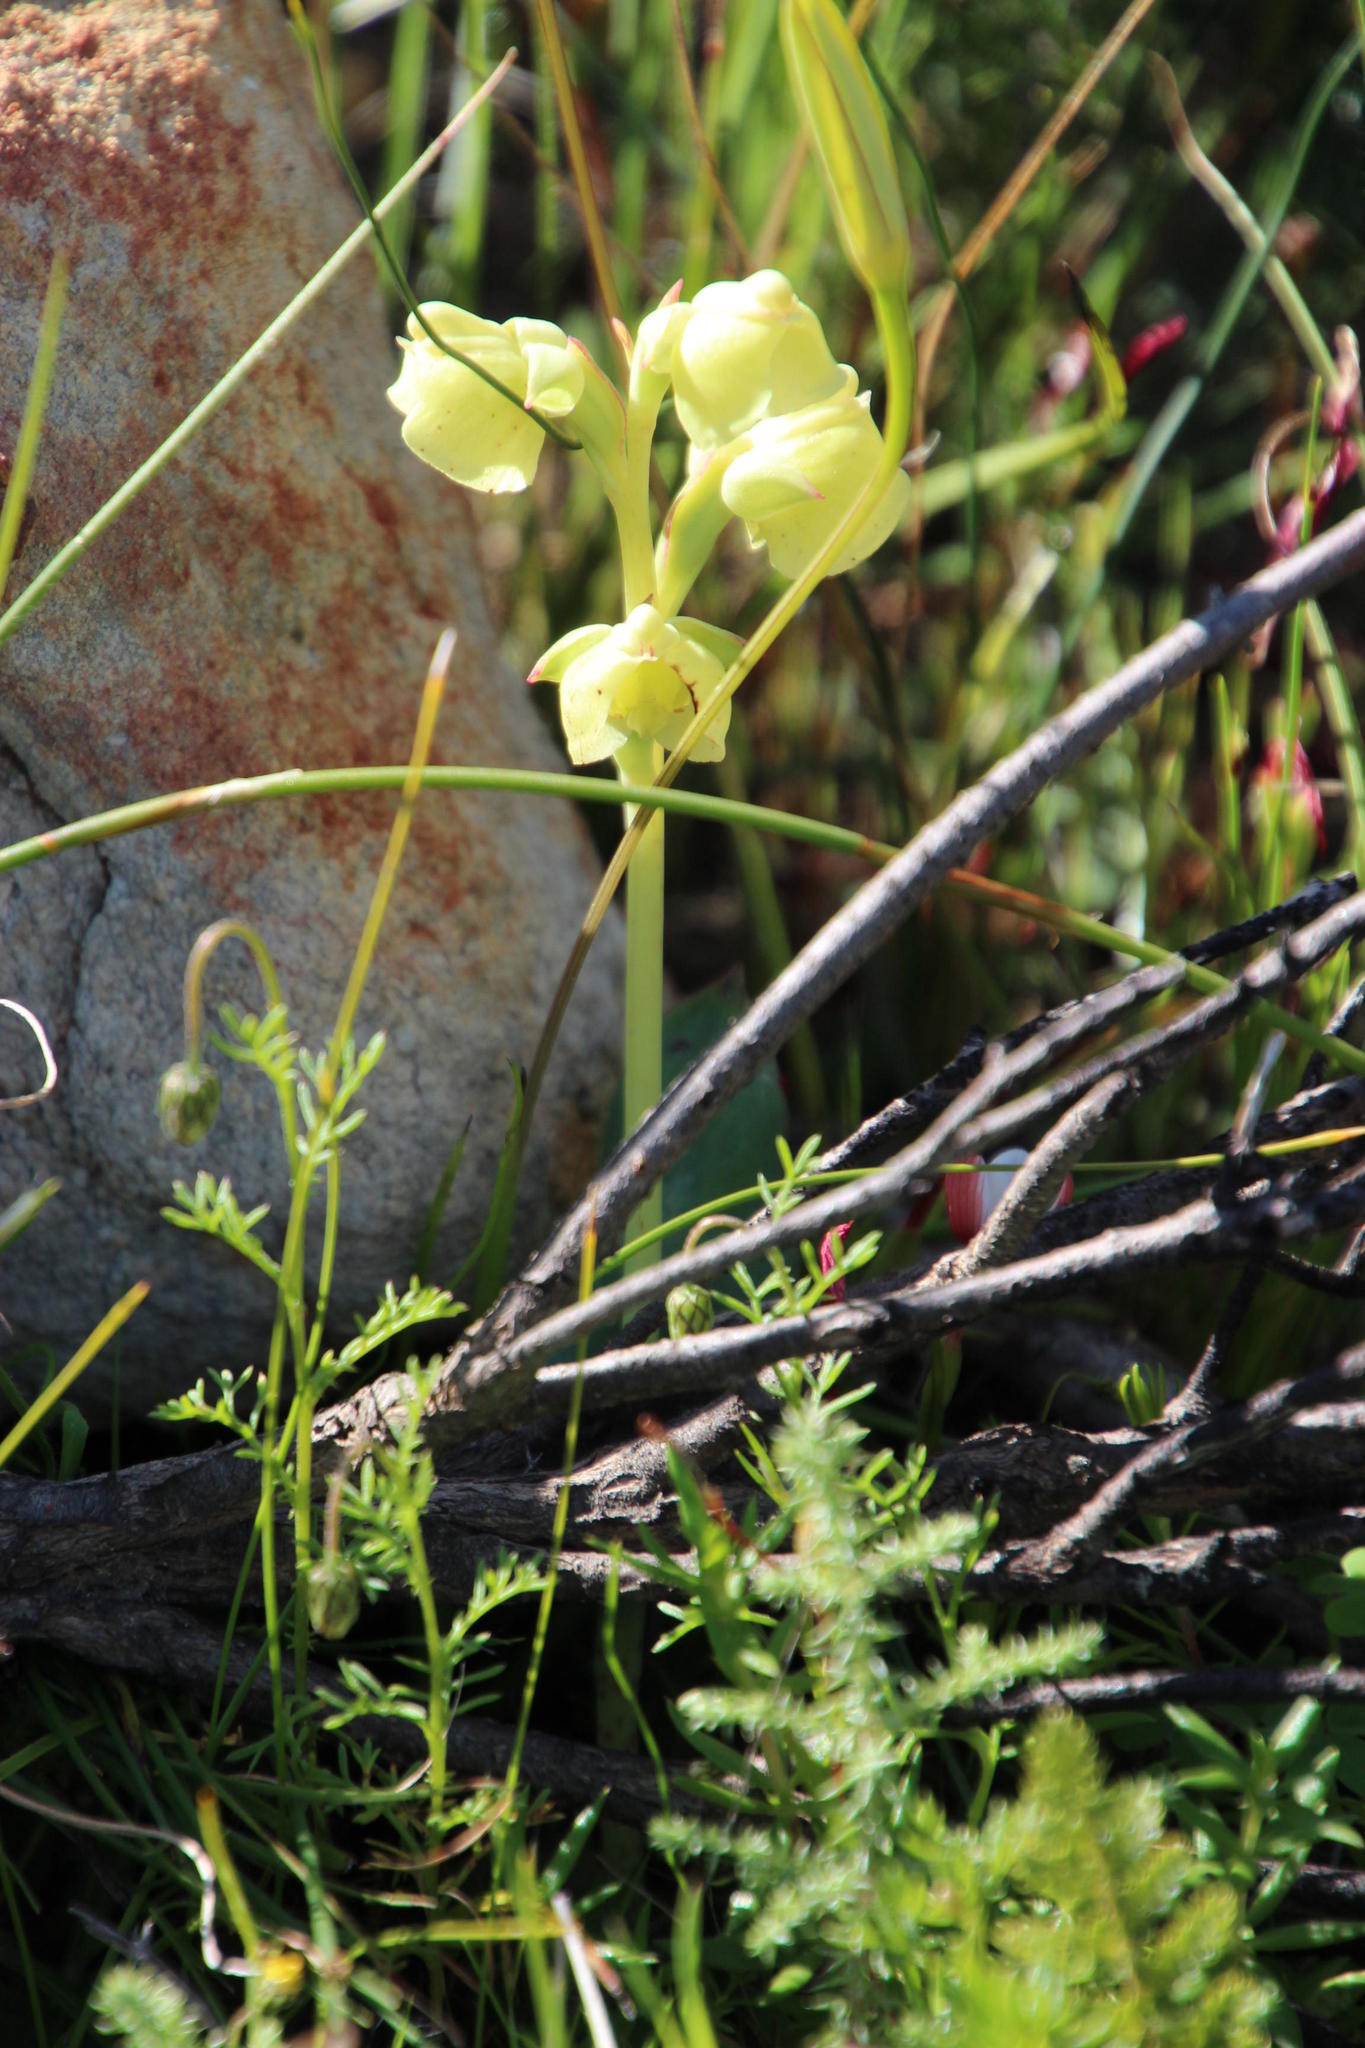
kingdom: Plantae
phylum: Tracheophyta
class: Liliopsida
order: Asparagales
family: Orchidaceae
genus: Pterygodium
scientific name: Pterygodium catholicum
